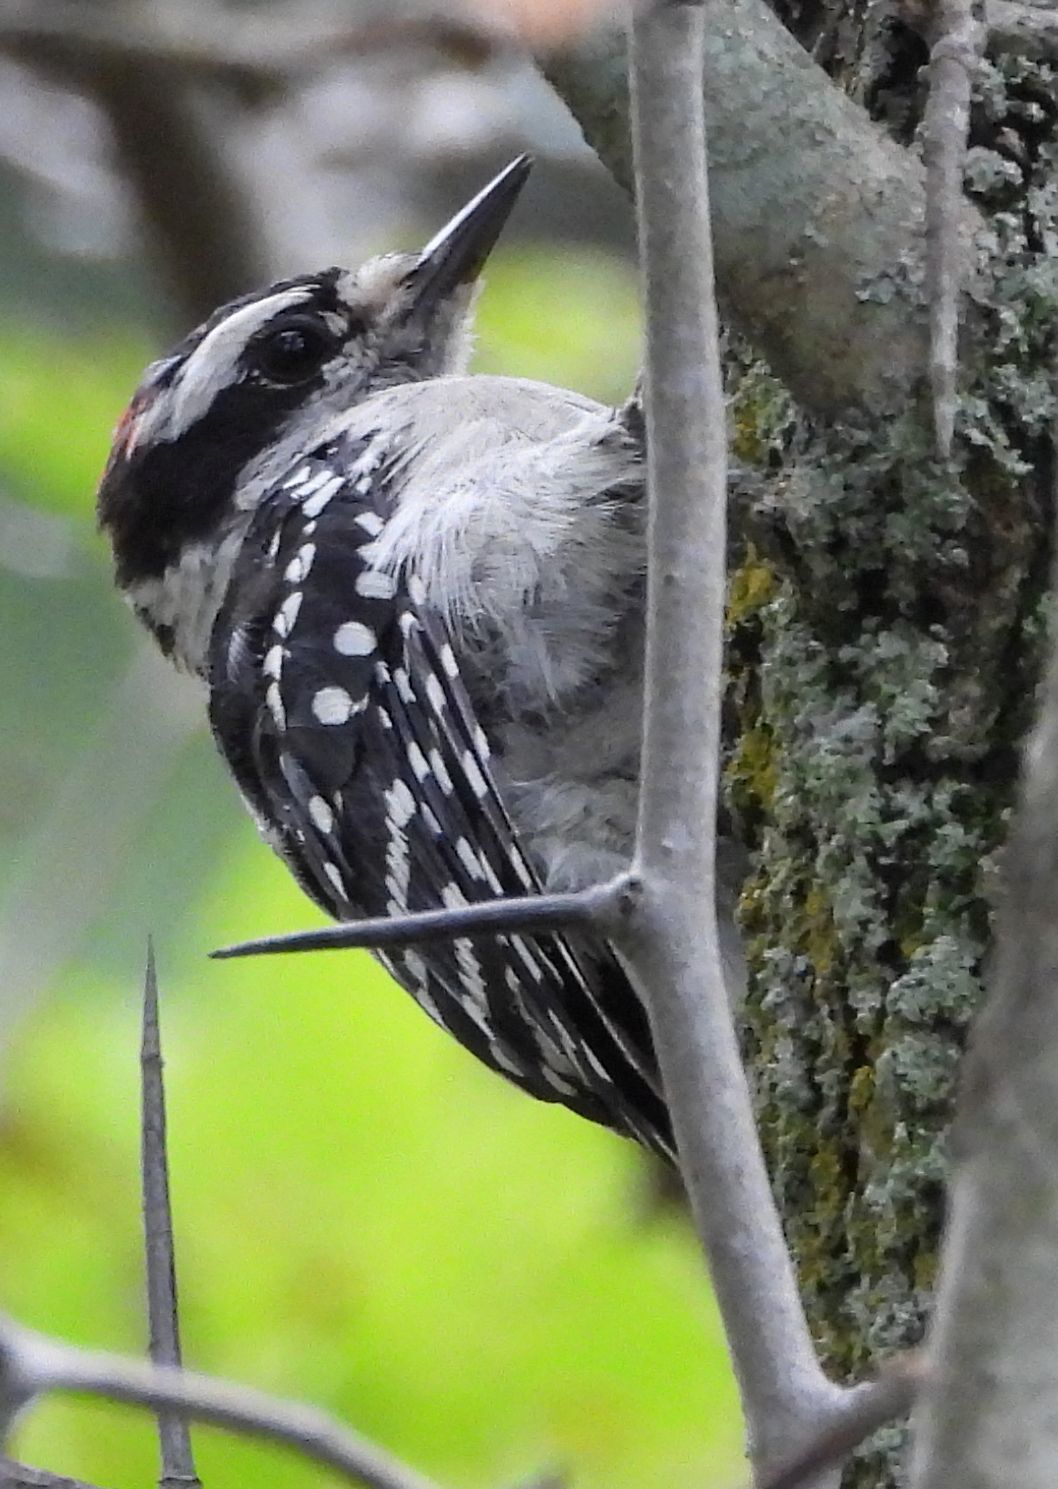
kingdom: Animalia
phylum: Chordata
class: Aves
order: Piciformes
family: Picidae
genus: Dryobates
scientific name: Dryobates pubescens
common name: Downy woodpecker
